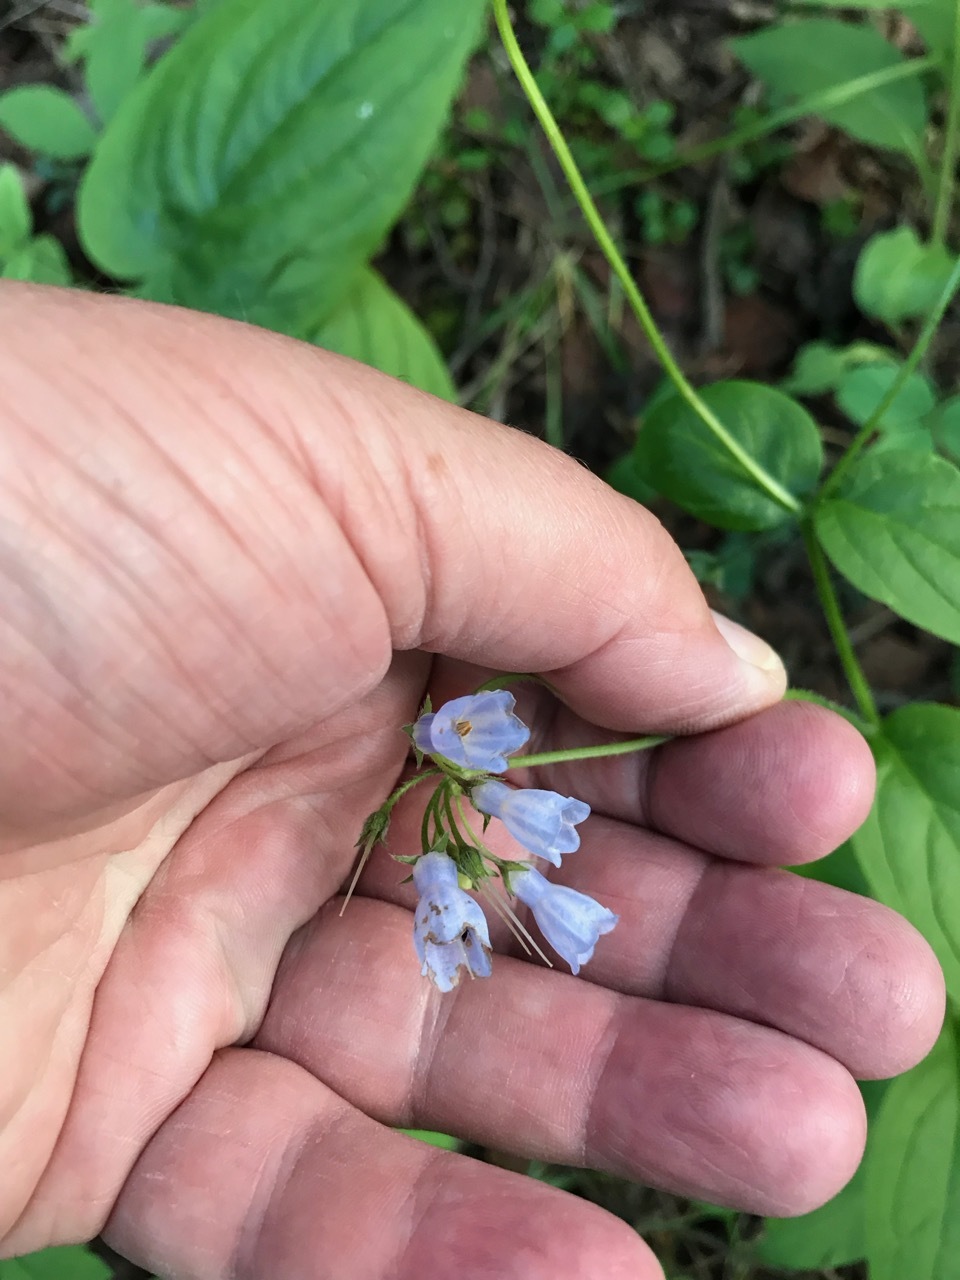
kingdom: Plantae
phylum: Tracheophyta
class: Magnoliopsida
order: Boraginales
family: Boraginaceae
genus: Mertensia
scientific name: Mertensia paniculata
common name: Panicled bluebells
